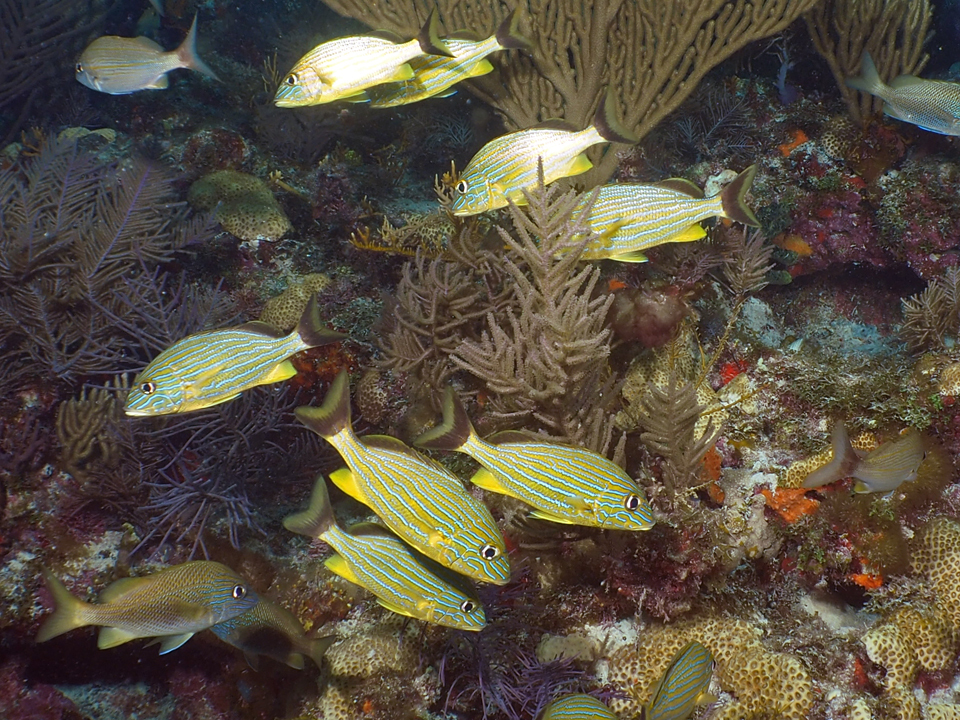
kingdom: Animalia
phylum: Chordata
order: Perciformes
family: Haemulidae
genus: Haemulon
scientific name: Haemulon sciurus
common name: Bluestriped grunt
